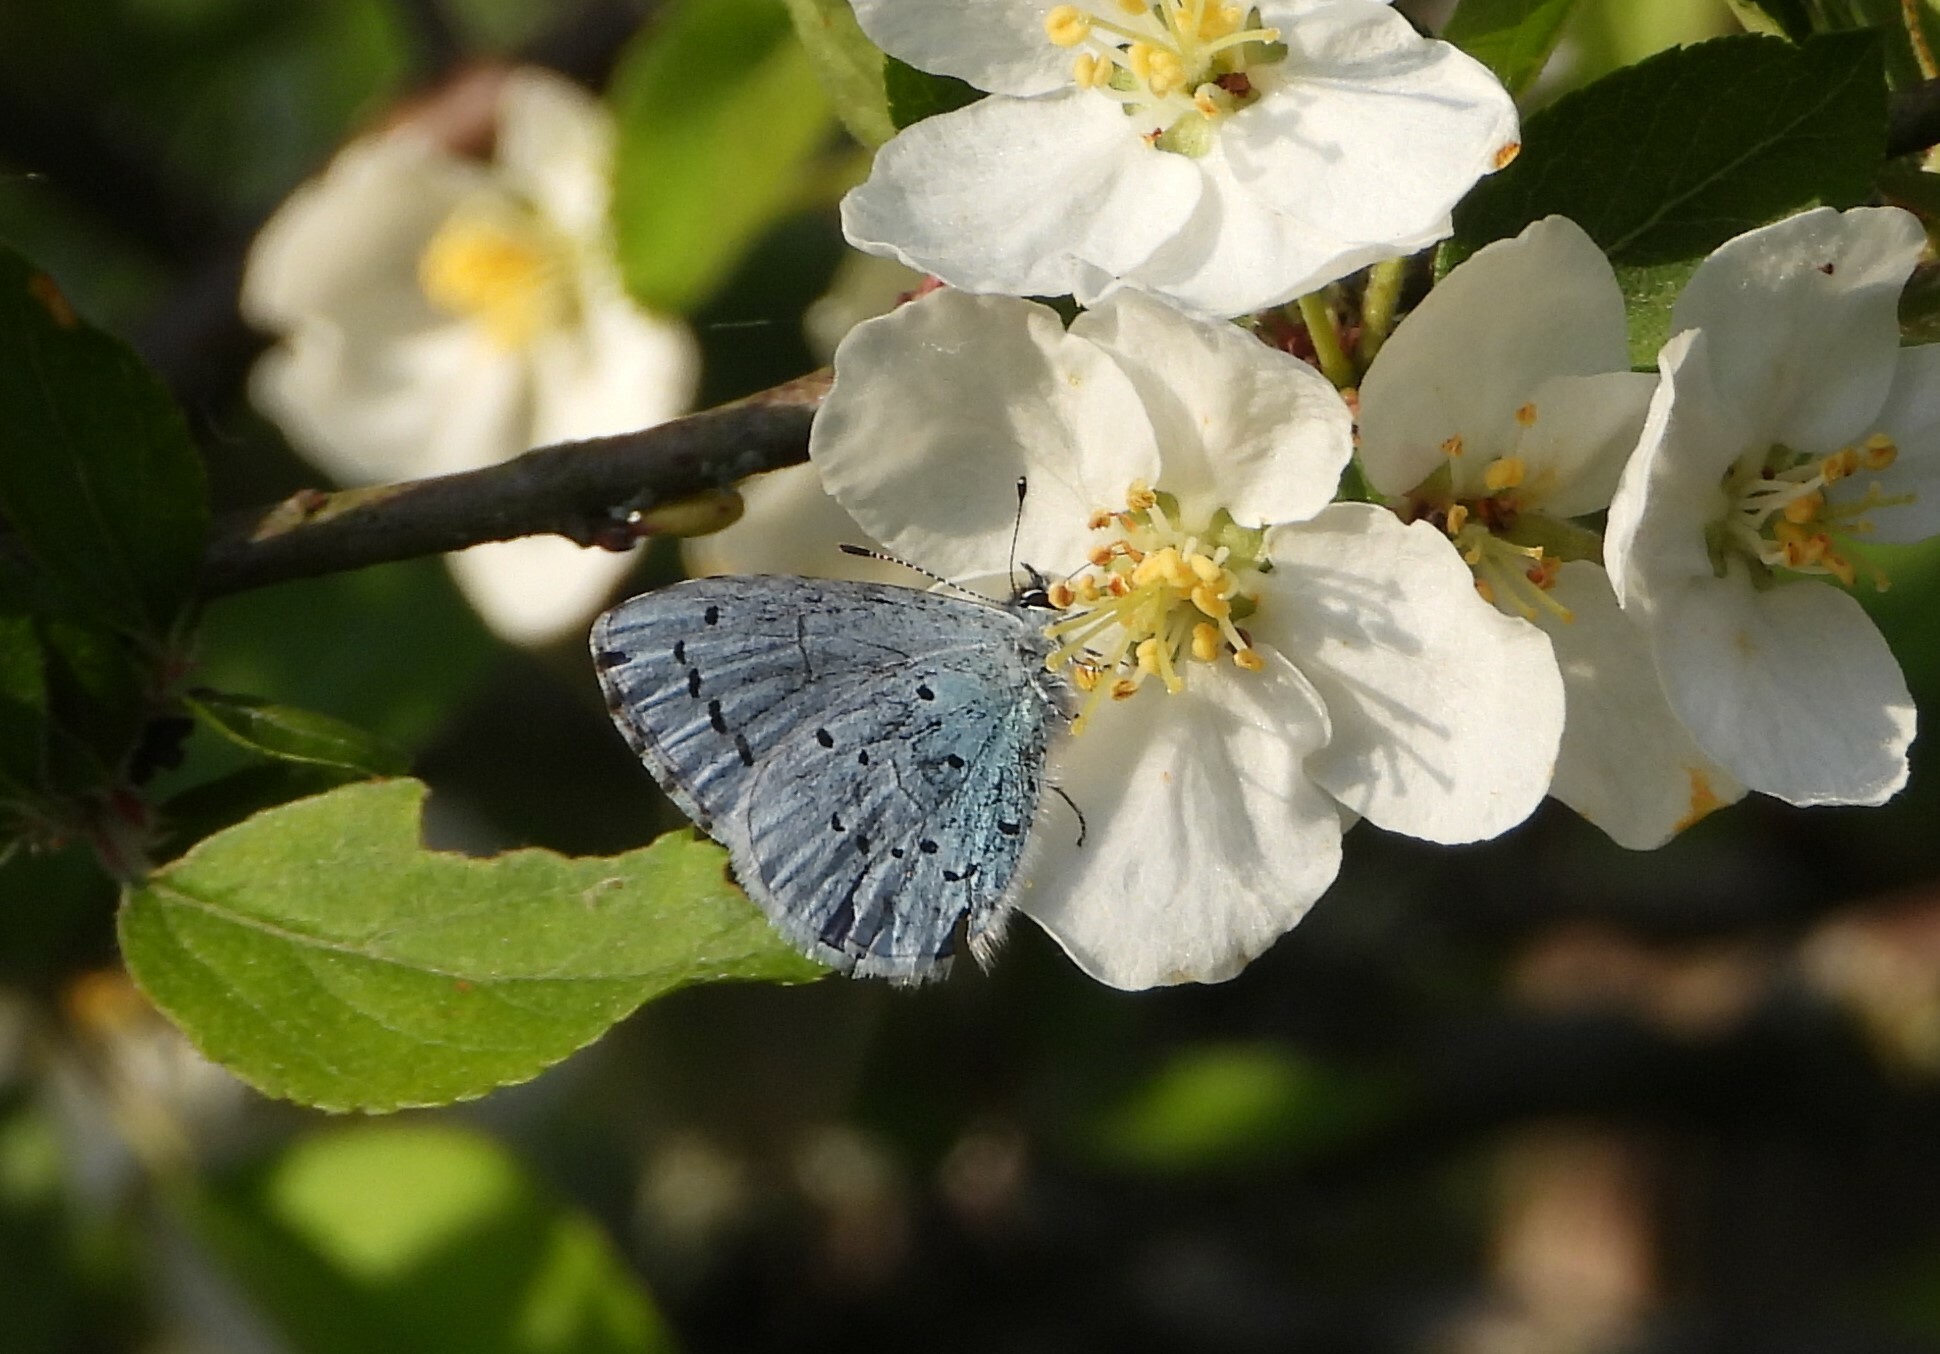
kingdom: Animalia
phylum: Arthropoda
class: Insecta
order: Lepidoptera
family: Lycaenidae
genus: Celastrina
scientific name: Celastrina argiolus
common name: Holly blue
